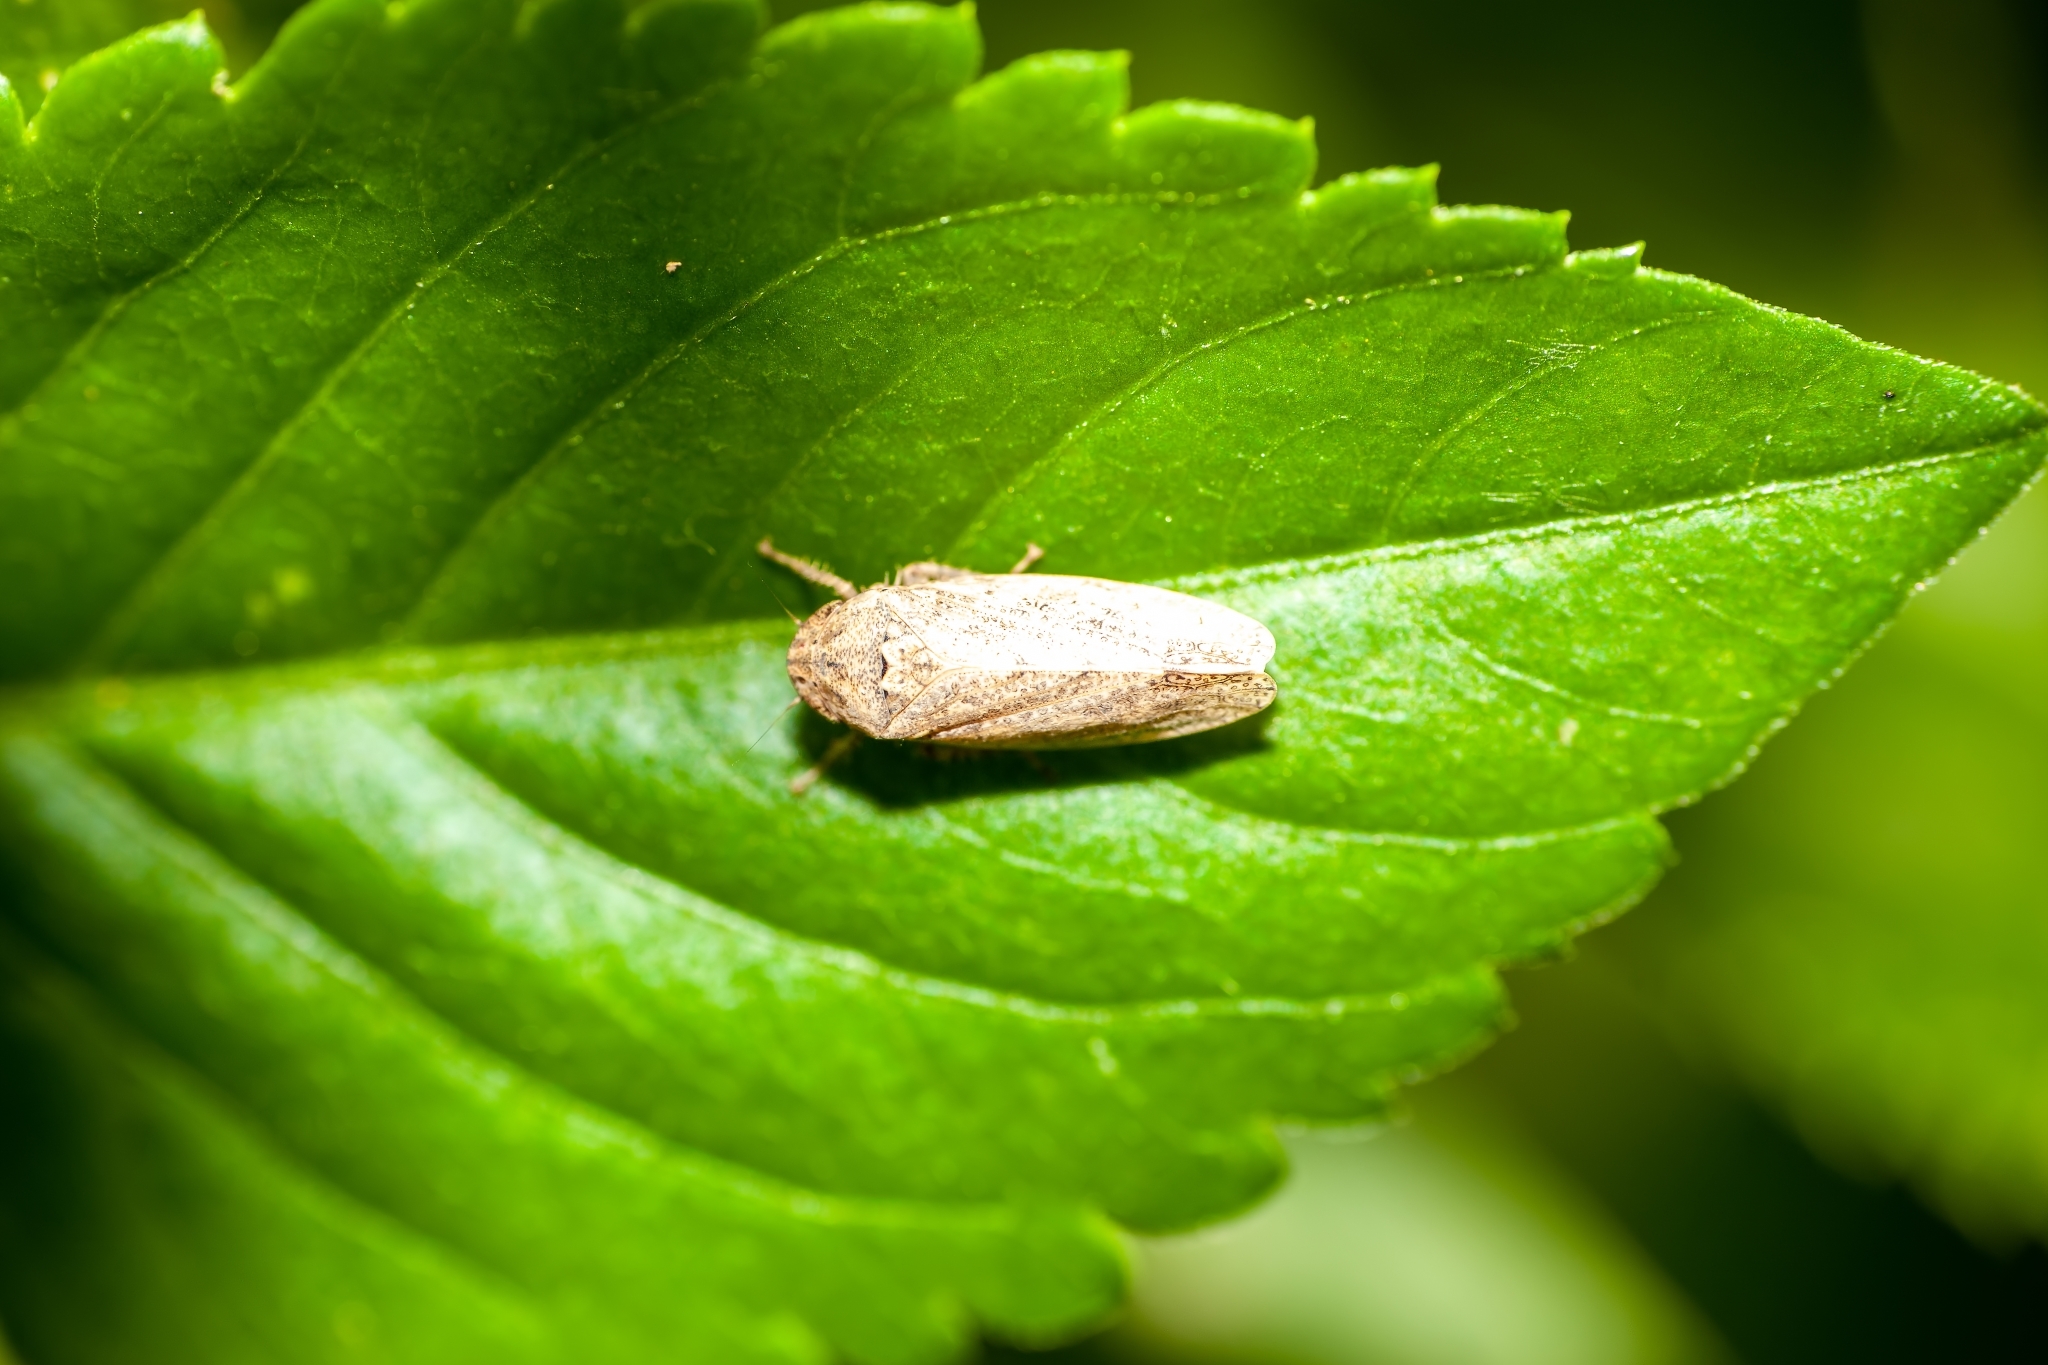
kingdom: Animalia
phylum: Arthropoda
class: Insecta
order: Hemiptera
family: Cicadellidae
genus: Curtara
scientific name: Curtara insularis
